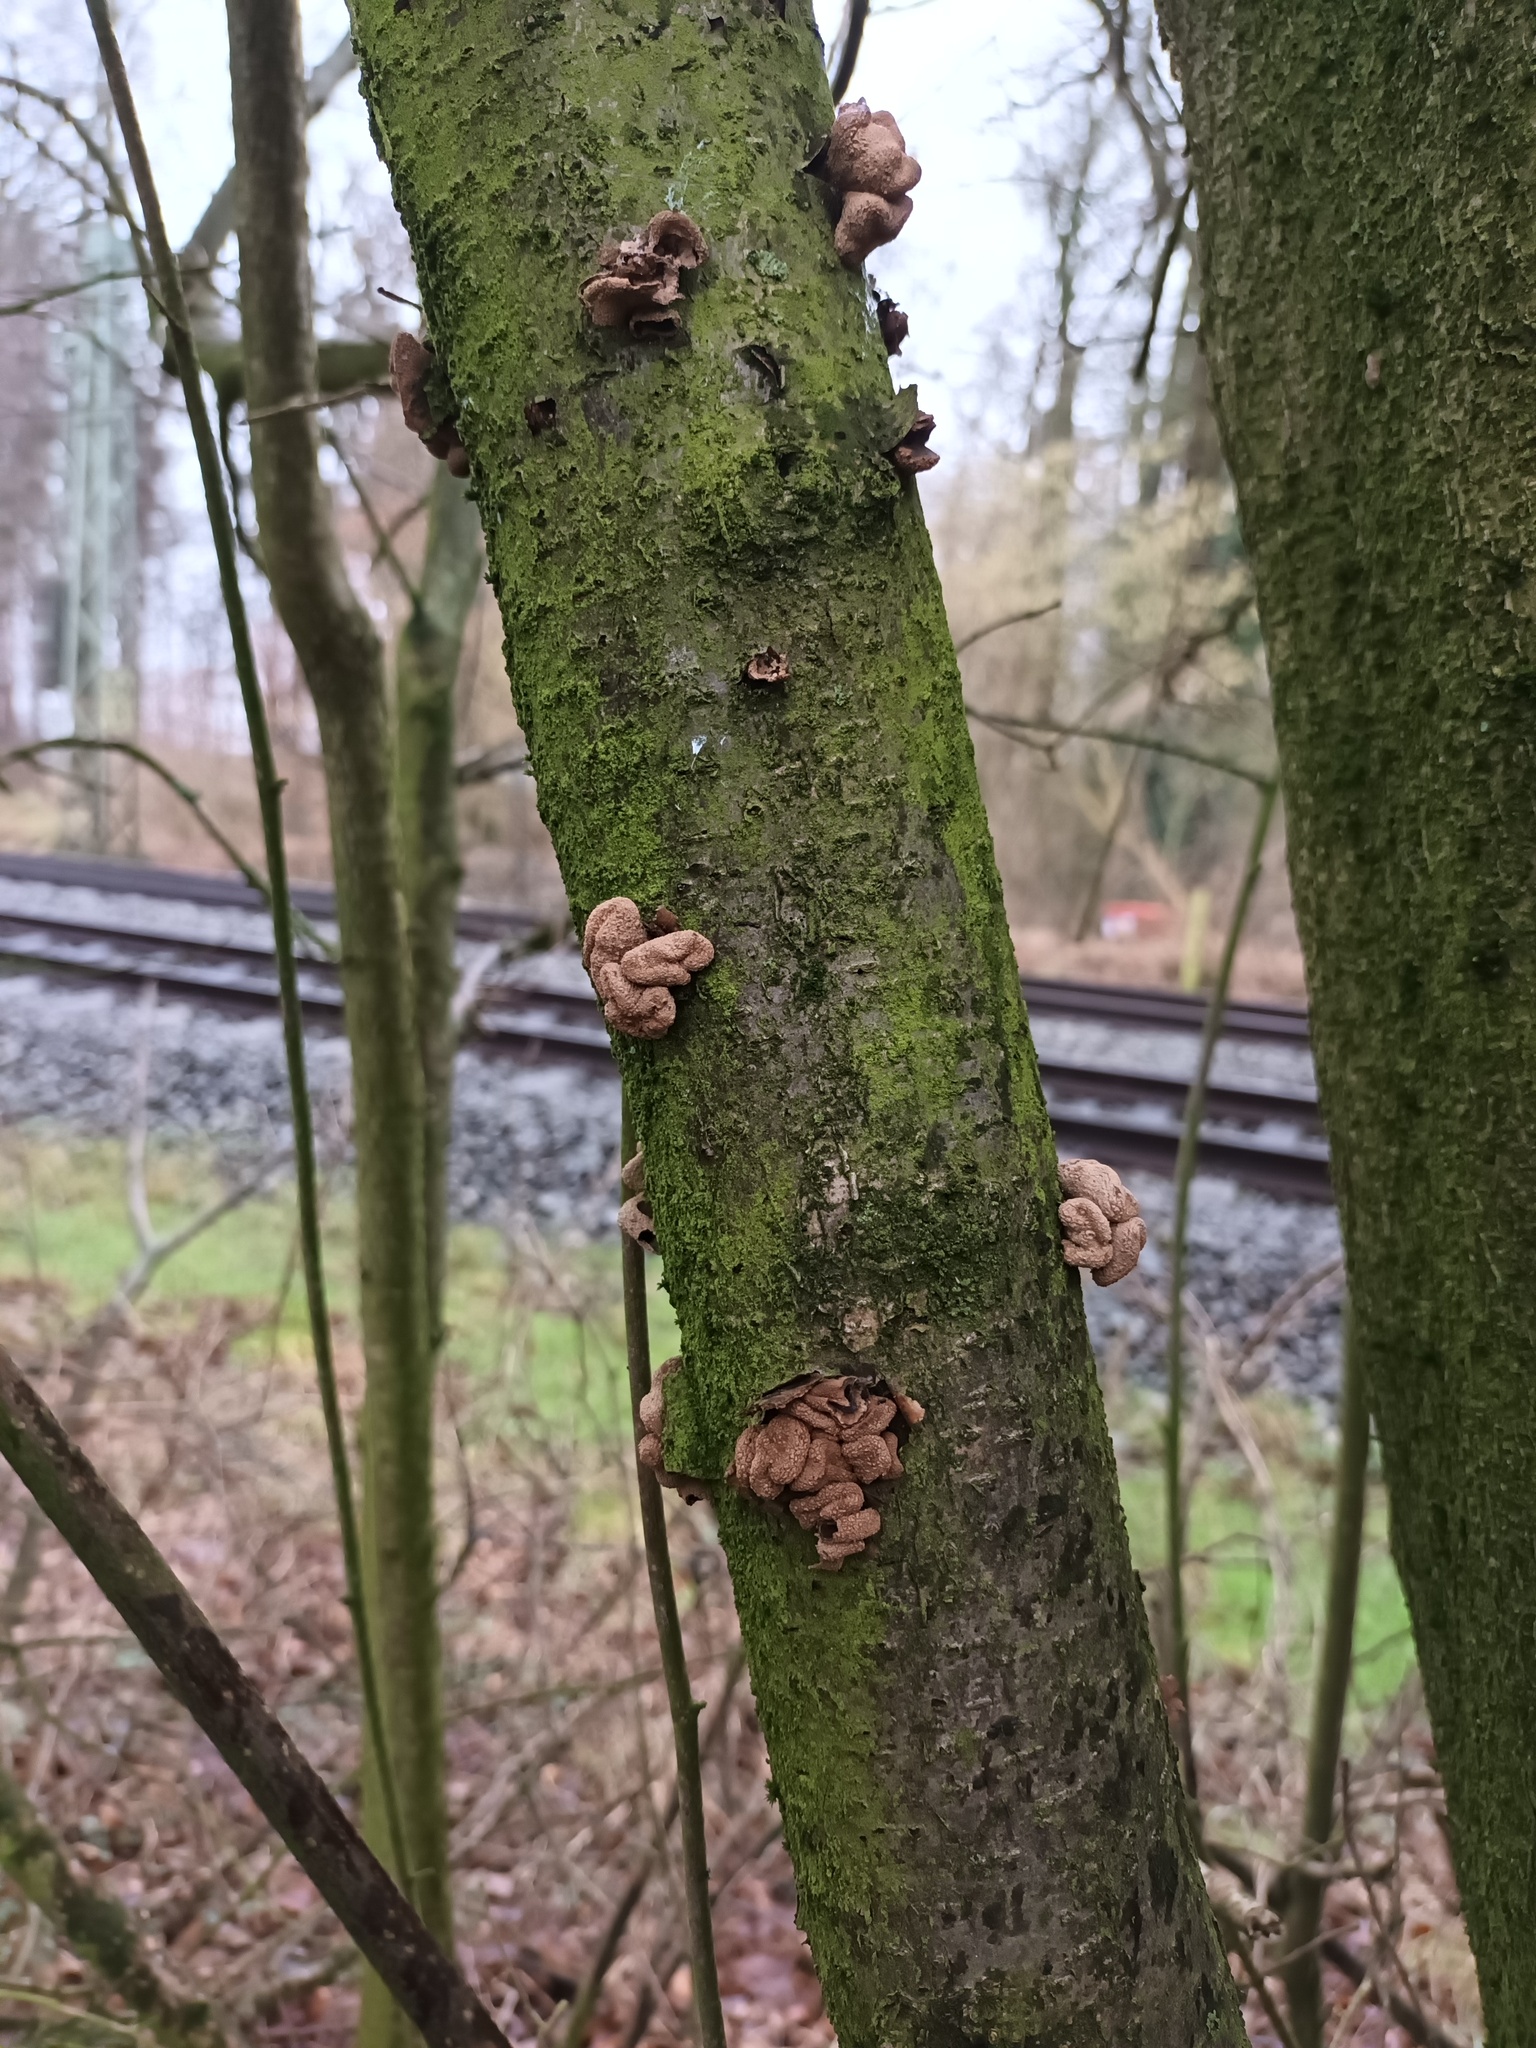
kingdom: Fungi
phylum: Ascomycota
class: Leotiomycetes
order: Helotiales
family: Cenangiaceae
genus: Encoelia
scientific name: Encoelia furfuracea
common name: Spring hazelcup
